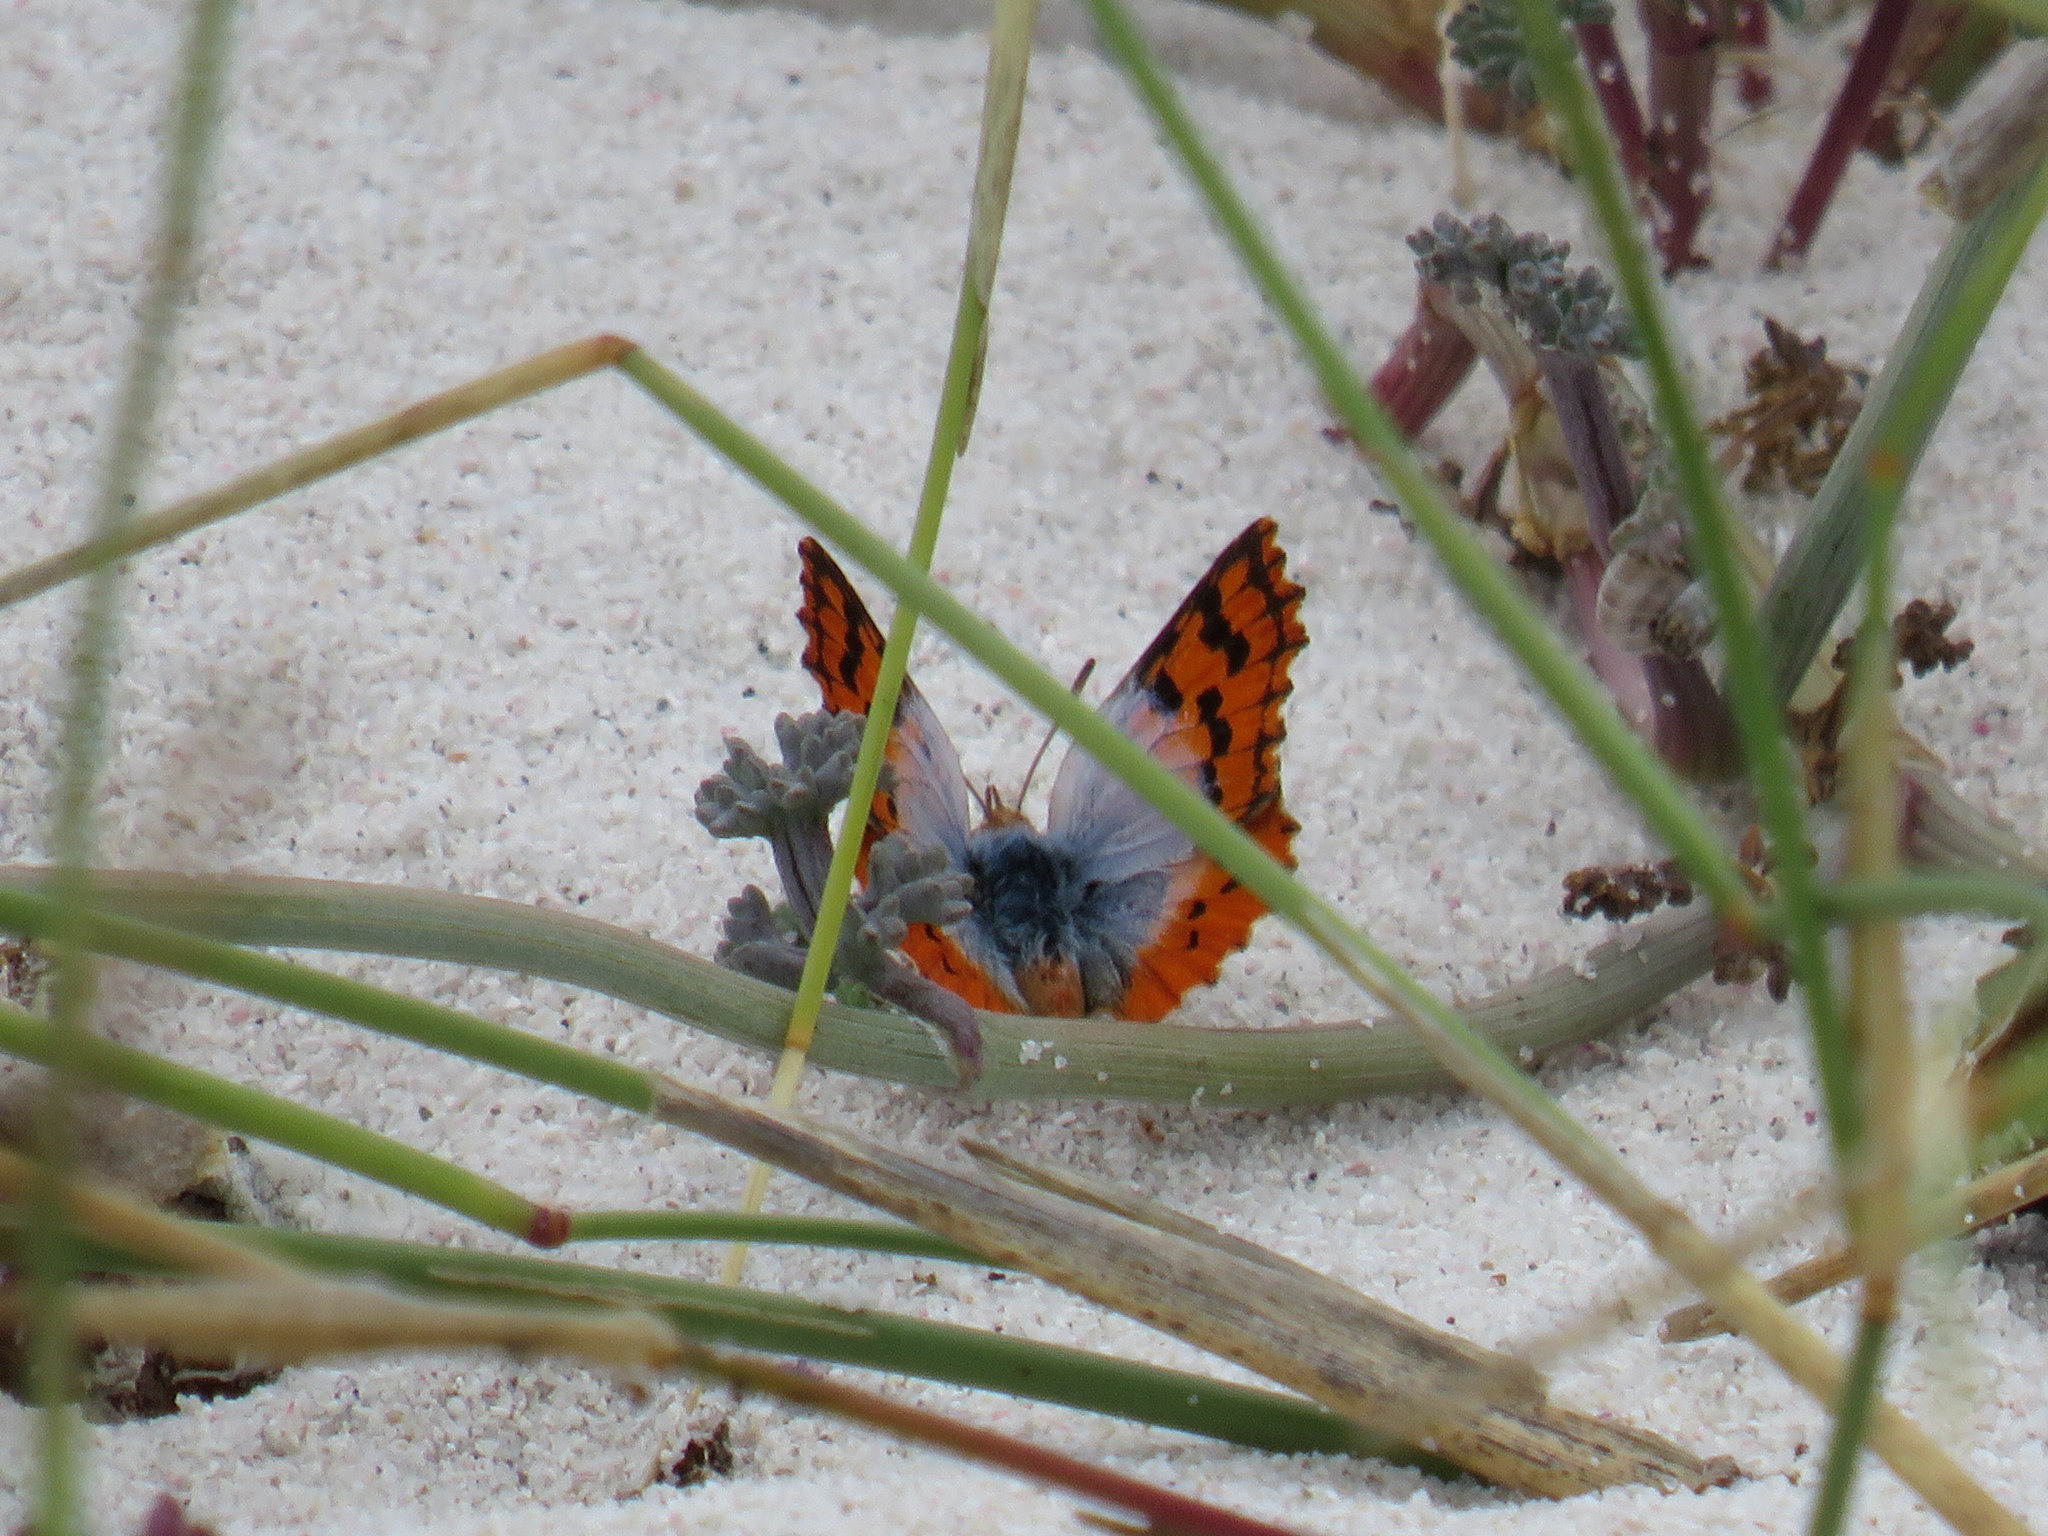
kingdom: Animalia
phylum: Arthropoda
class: Insecta
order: Lepidoptera
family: Lycaenidae
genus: Chrysoritis
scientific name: Chrysoritis thysbe
